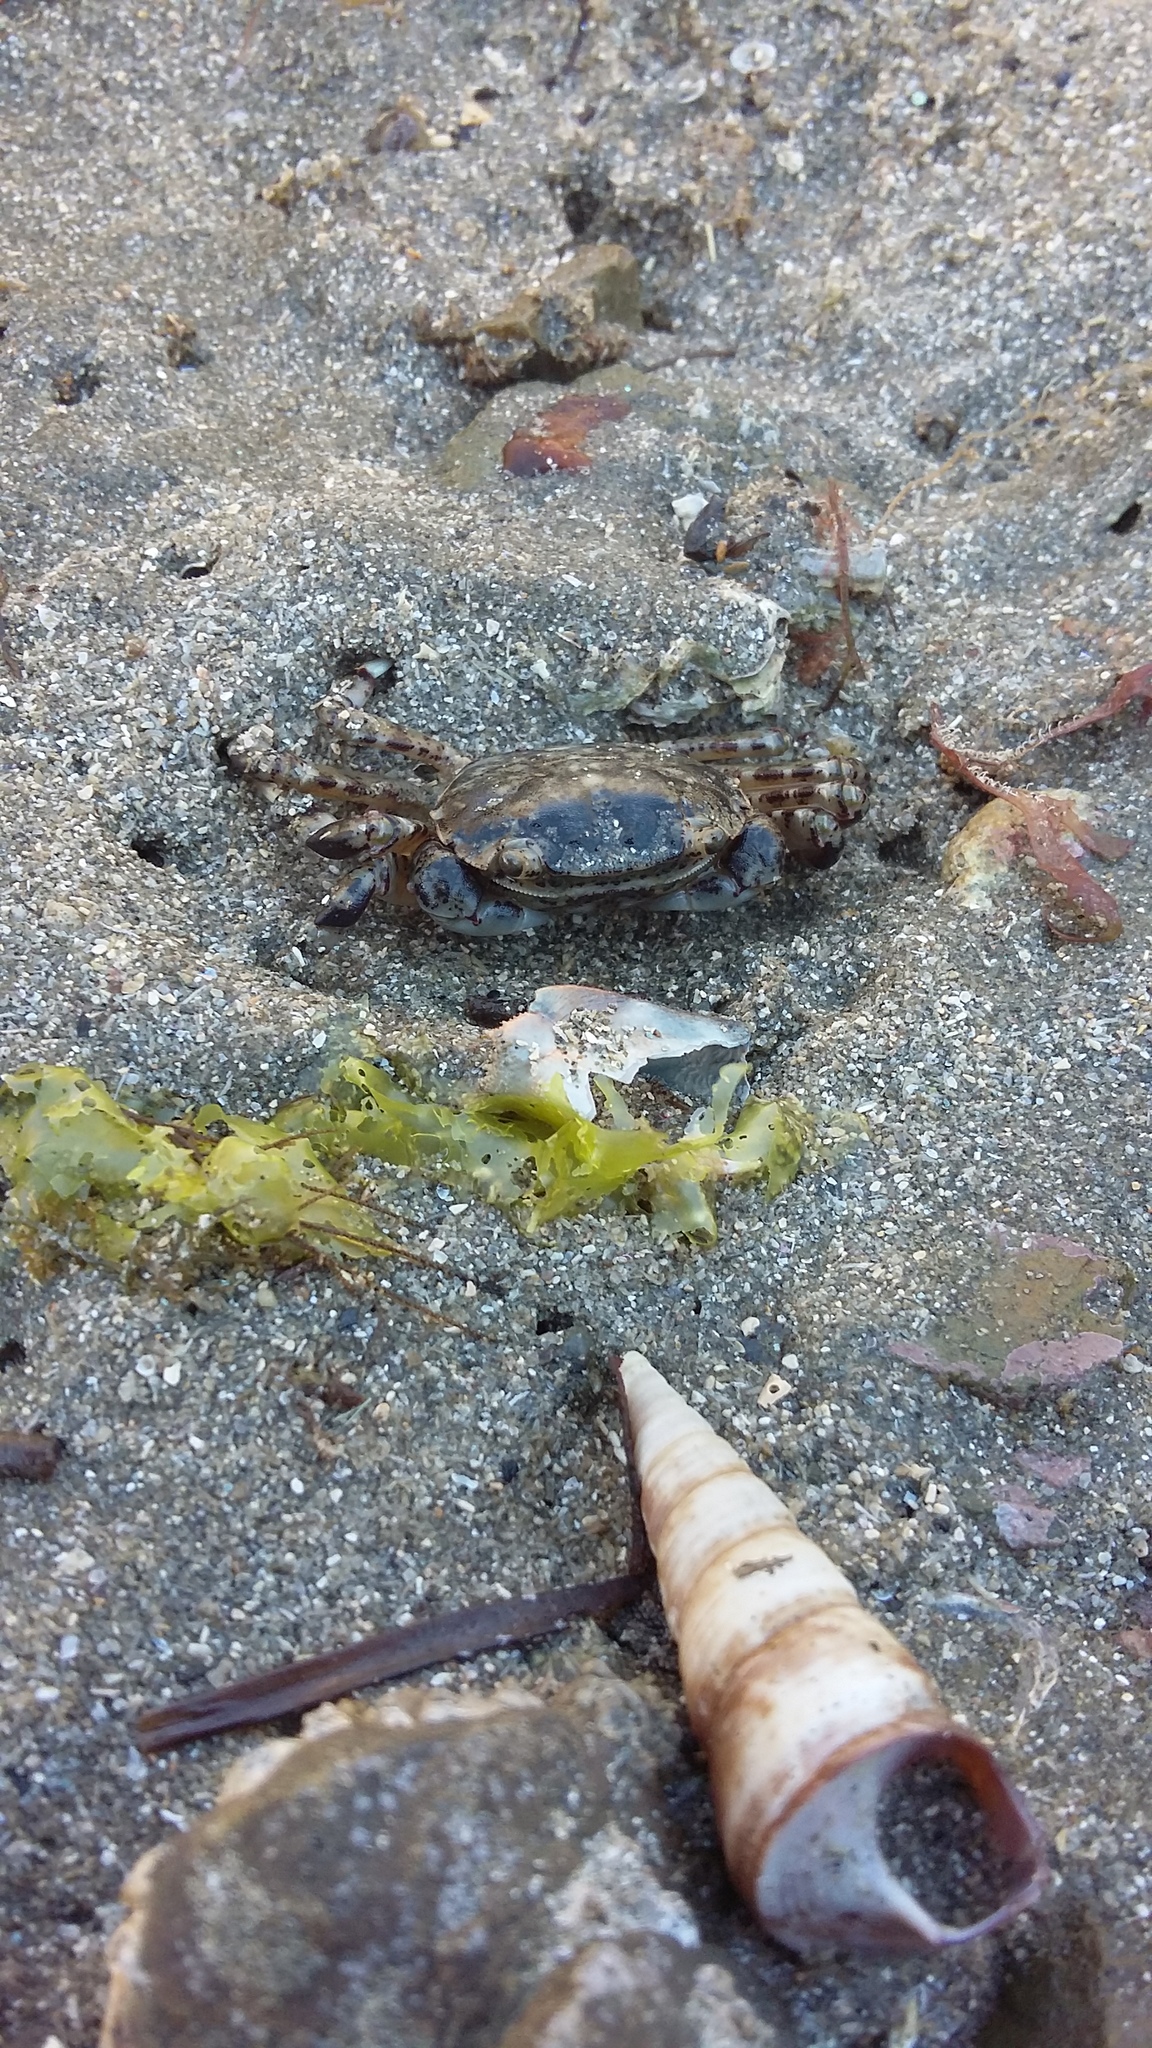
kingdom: Animalia
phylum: Arthropoda
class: Malacostraca
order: Decapoda
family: Varunidae
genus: Hemigrapsus
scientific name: Hemigrapsus sexdentatus
